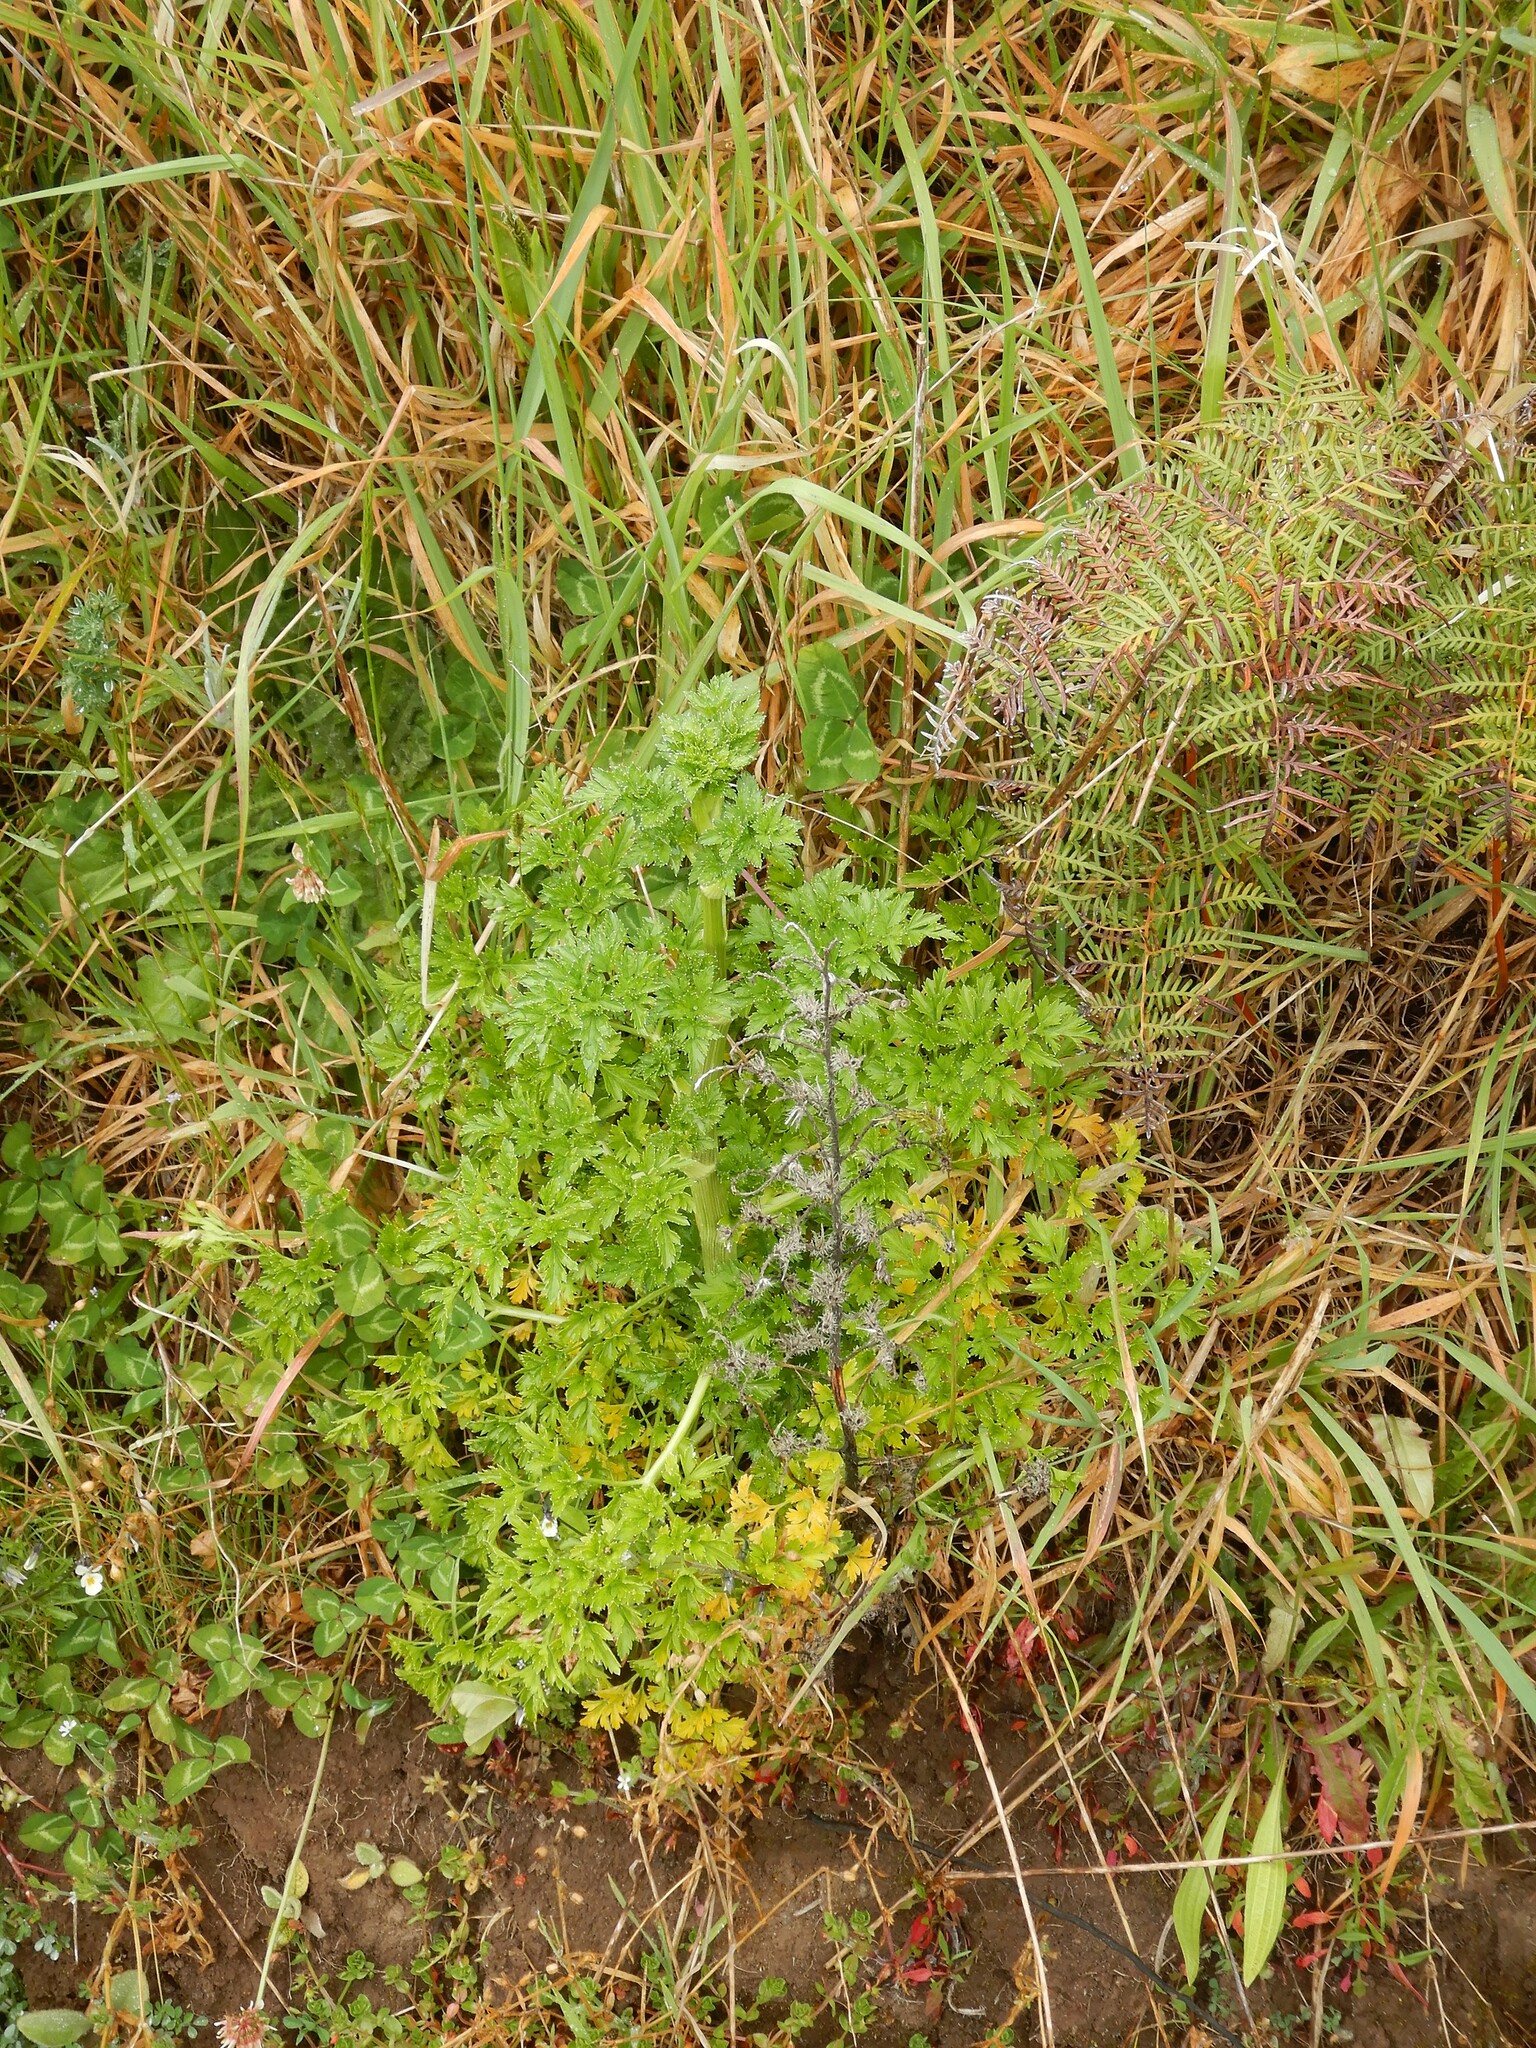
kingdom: Plantae
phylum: Tracheophyta
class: Magnoliopsida
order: Apiales
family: Apiaceae
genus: Petroselinum
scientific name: Petroselinum crispum
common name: Parsley
